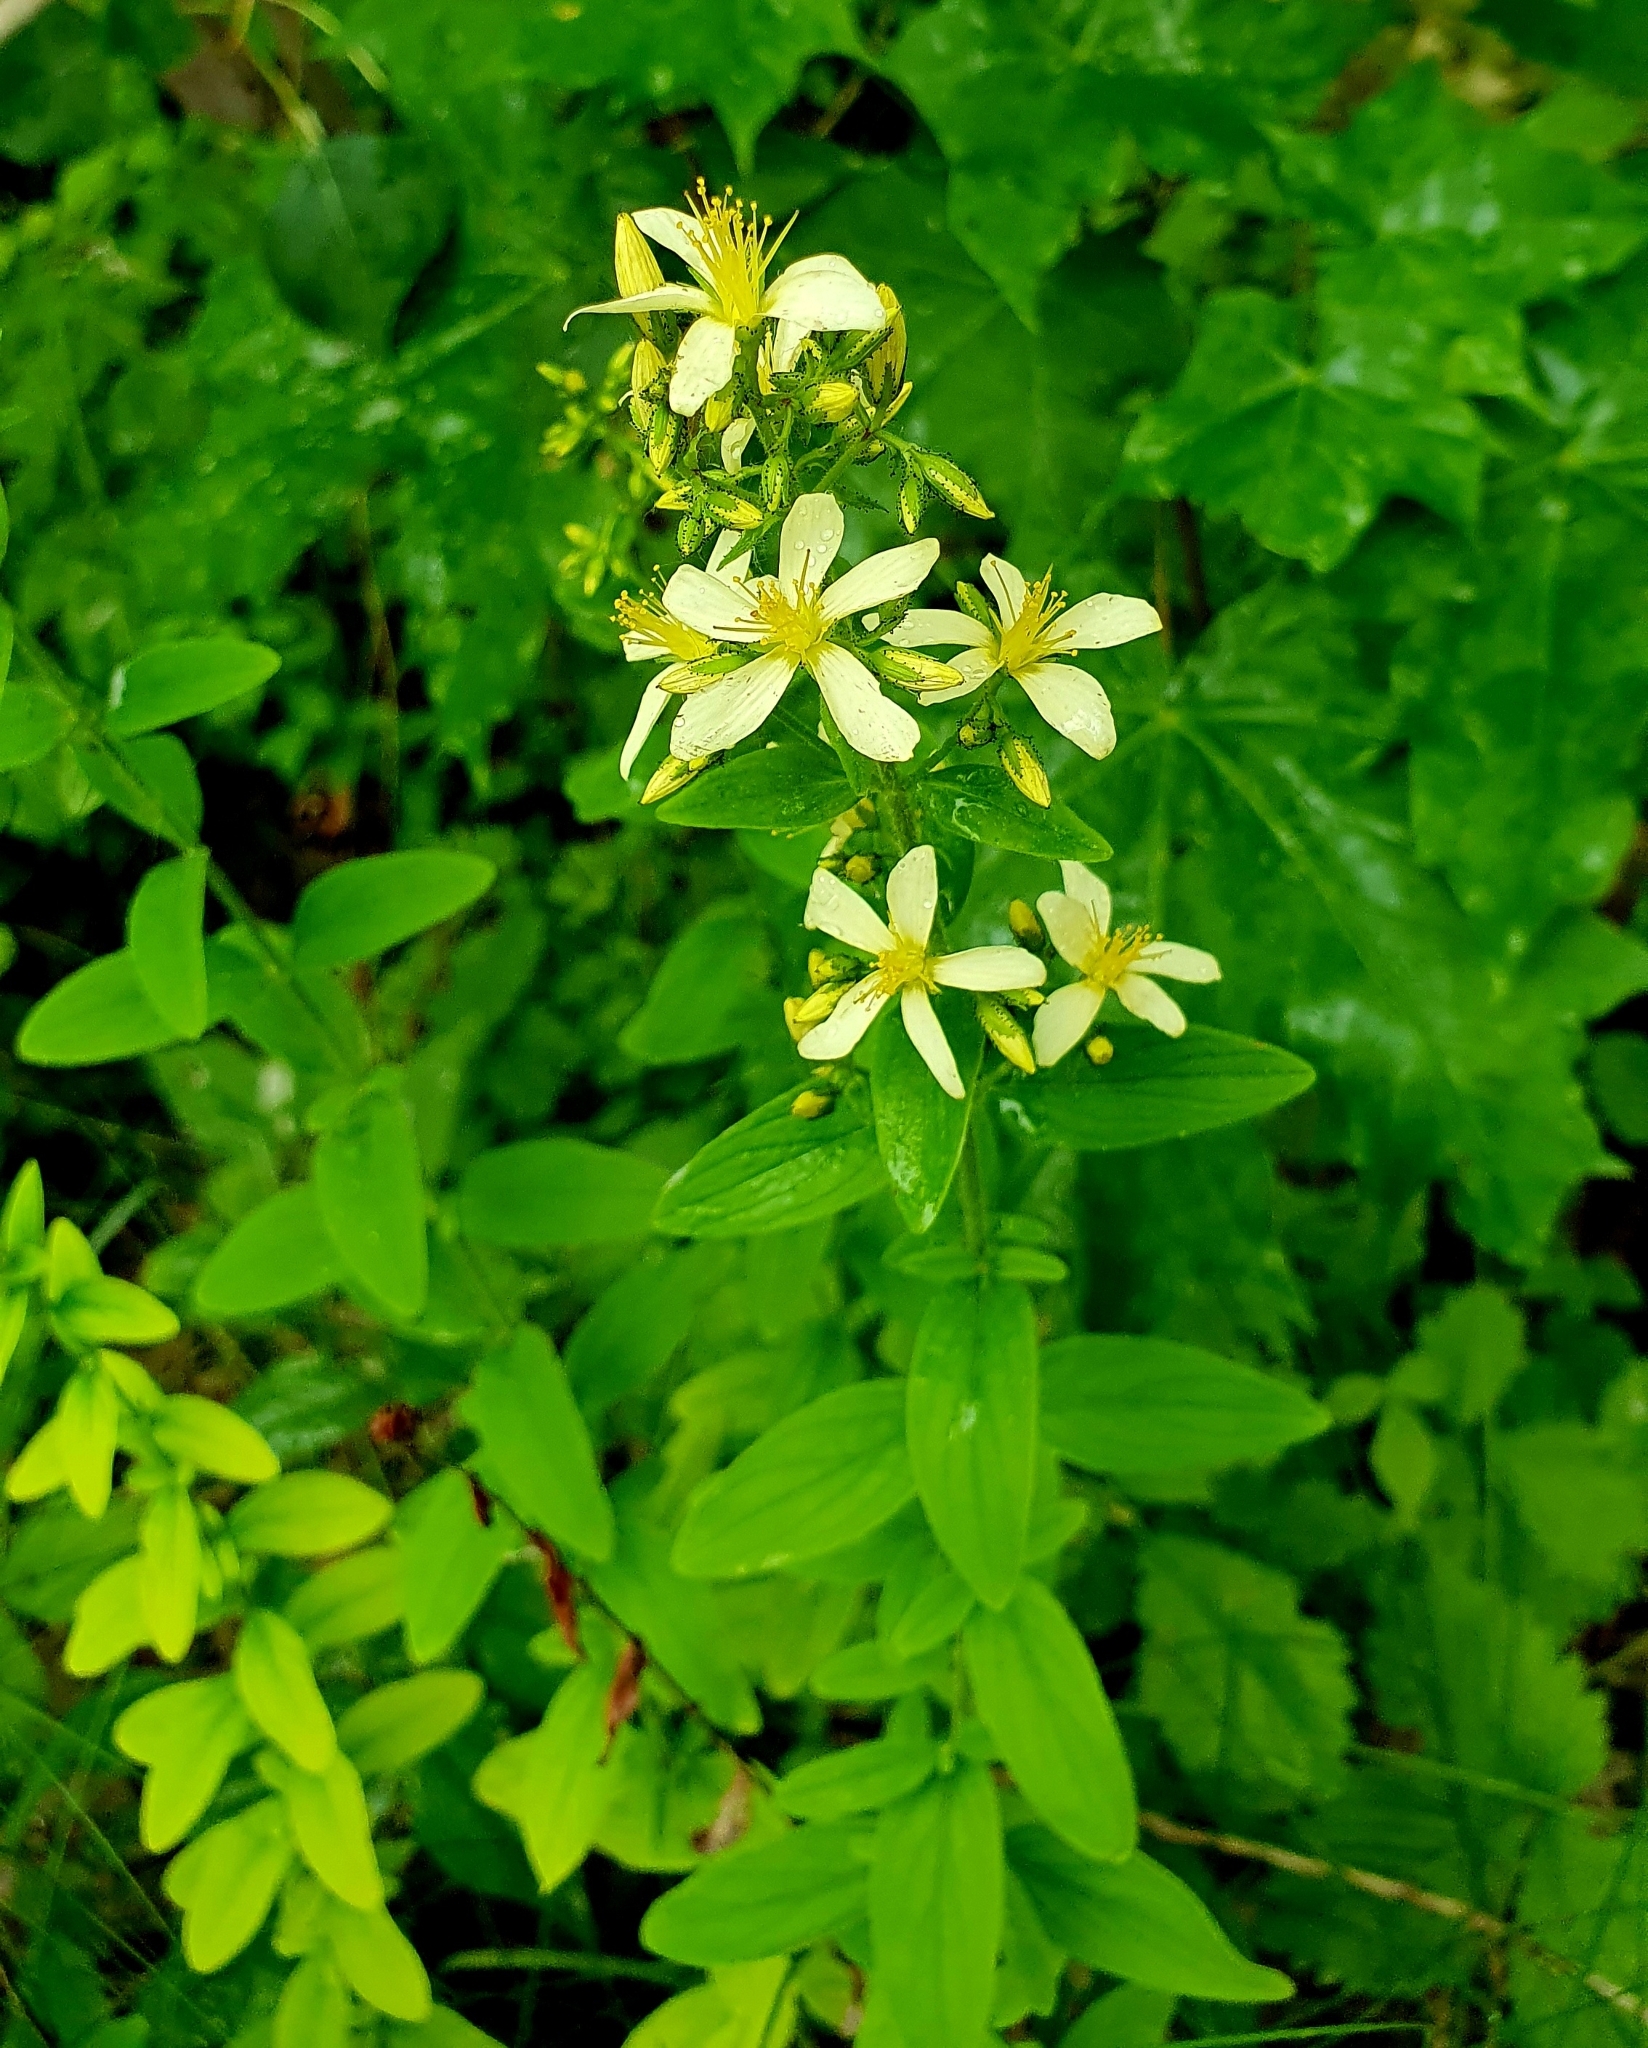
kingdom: Plantae
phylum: Tracheophyta
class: Magnoliopsida
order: Malpighiales
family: Hypericaceae
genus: Hypericum
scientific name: Hypericum hirsutum
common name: Hairy st. john's-wort
